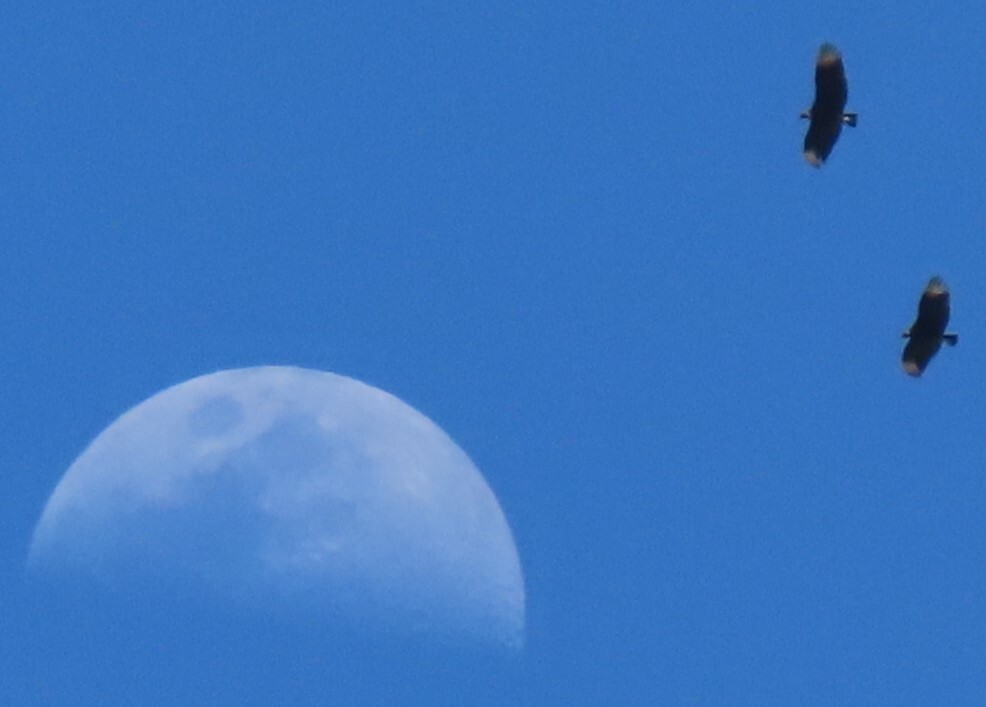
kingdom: Animalia
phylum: Chordata
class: Aves
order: Accipitriformes
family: Cathartidae
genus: Coragyps
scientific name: Coragyps atratus
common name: Black vulture
